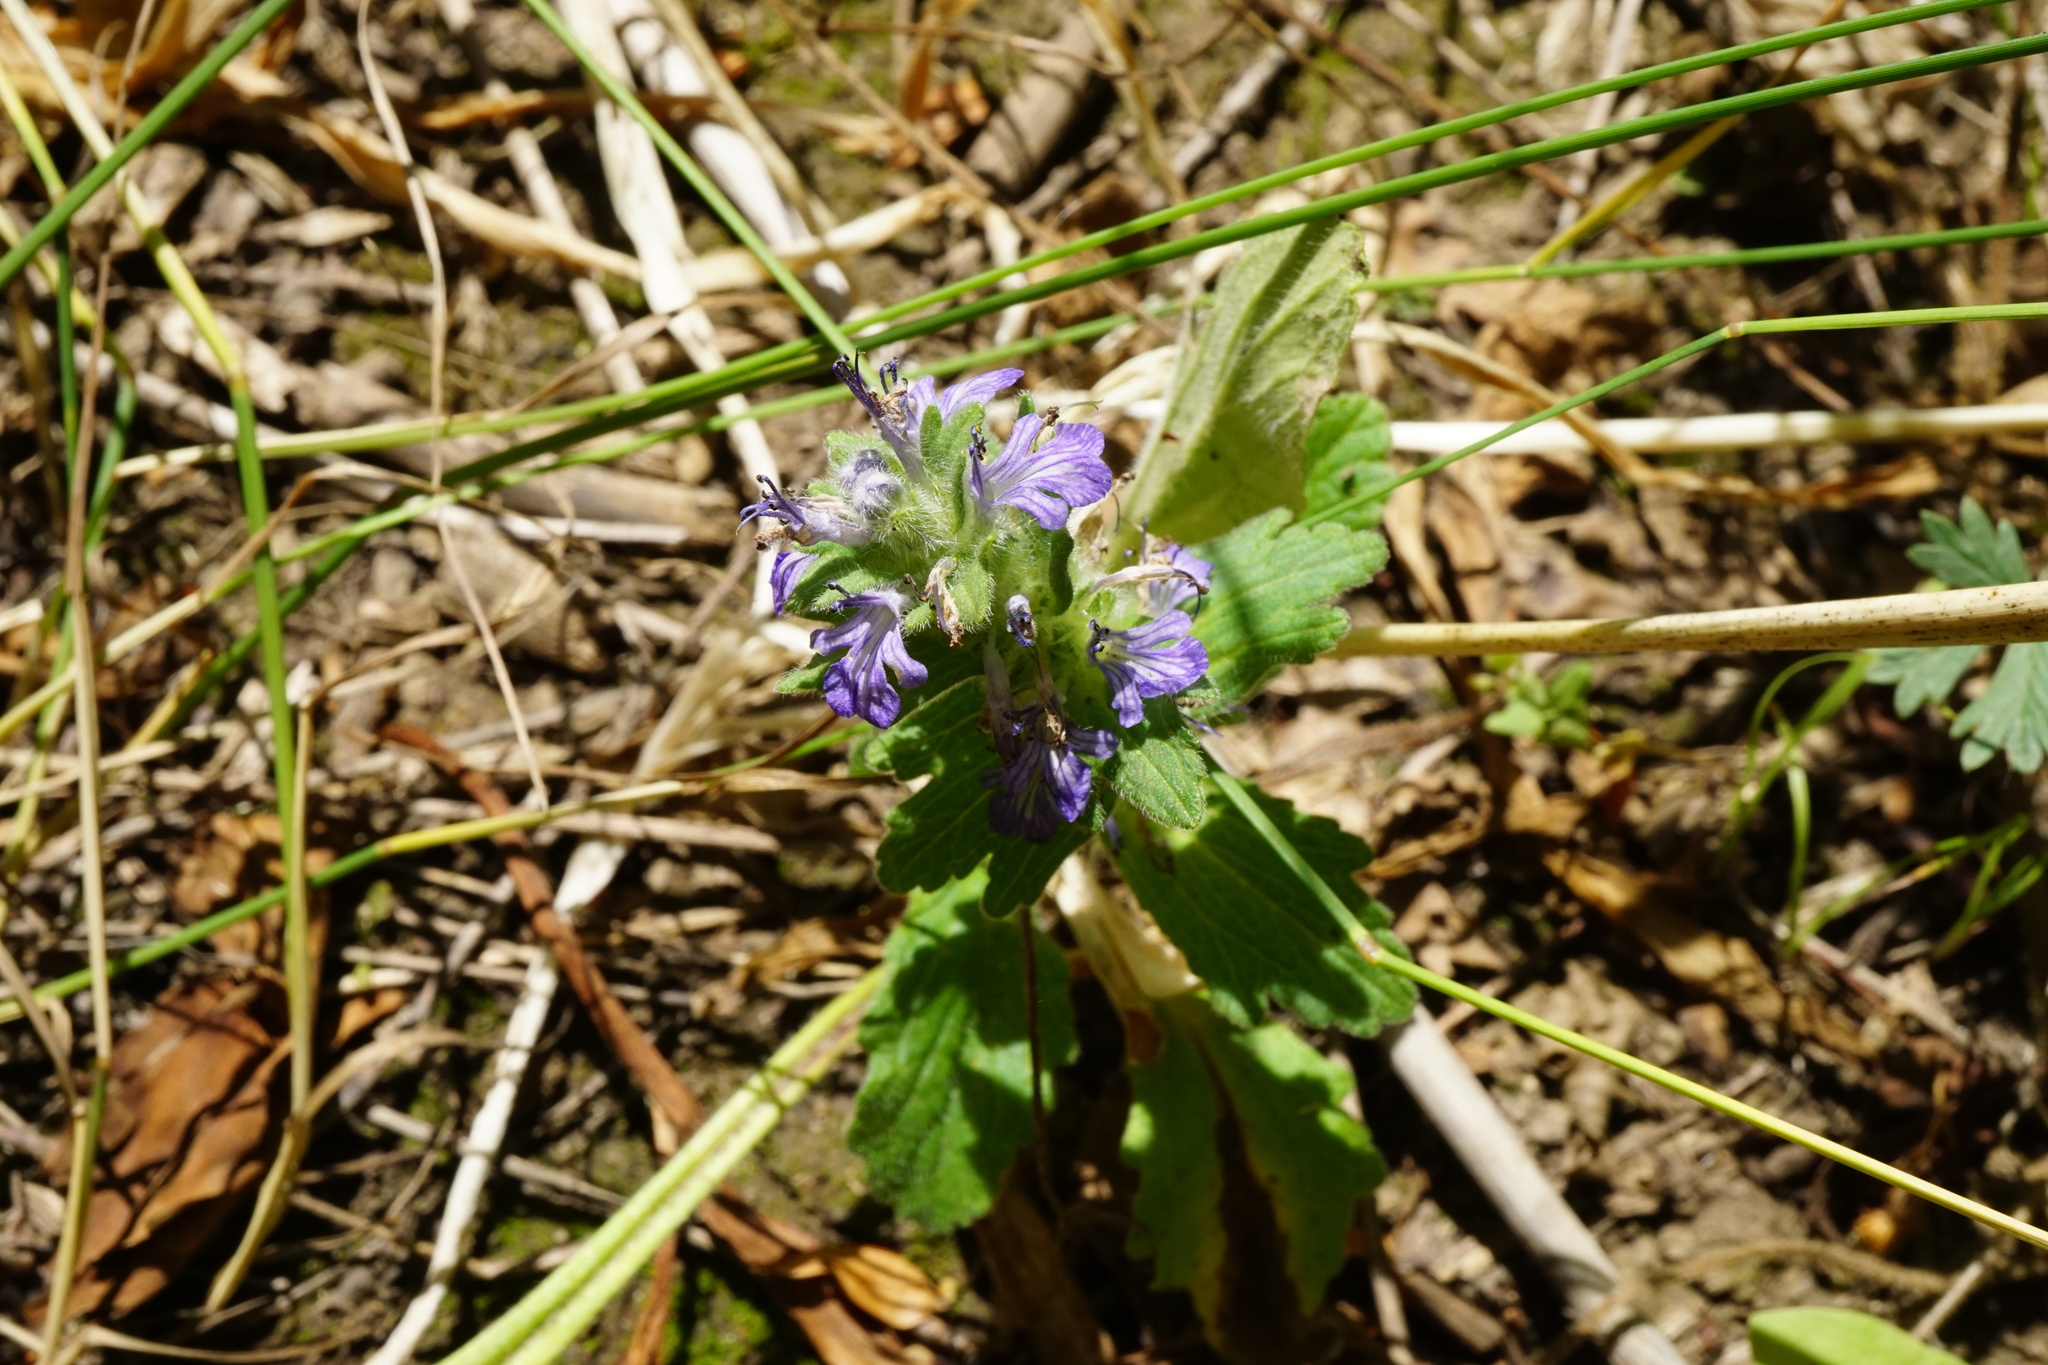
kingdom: Plantae
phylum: Tracheophyta
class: Magnoliopsida
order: Lamiales
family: Lamiaceae
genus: Ajuga
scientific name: Ajuga genevensis
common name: Blue bugle
